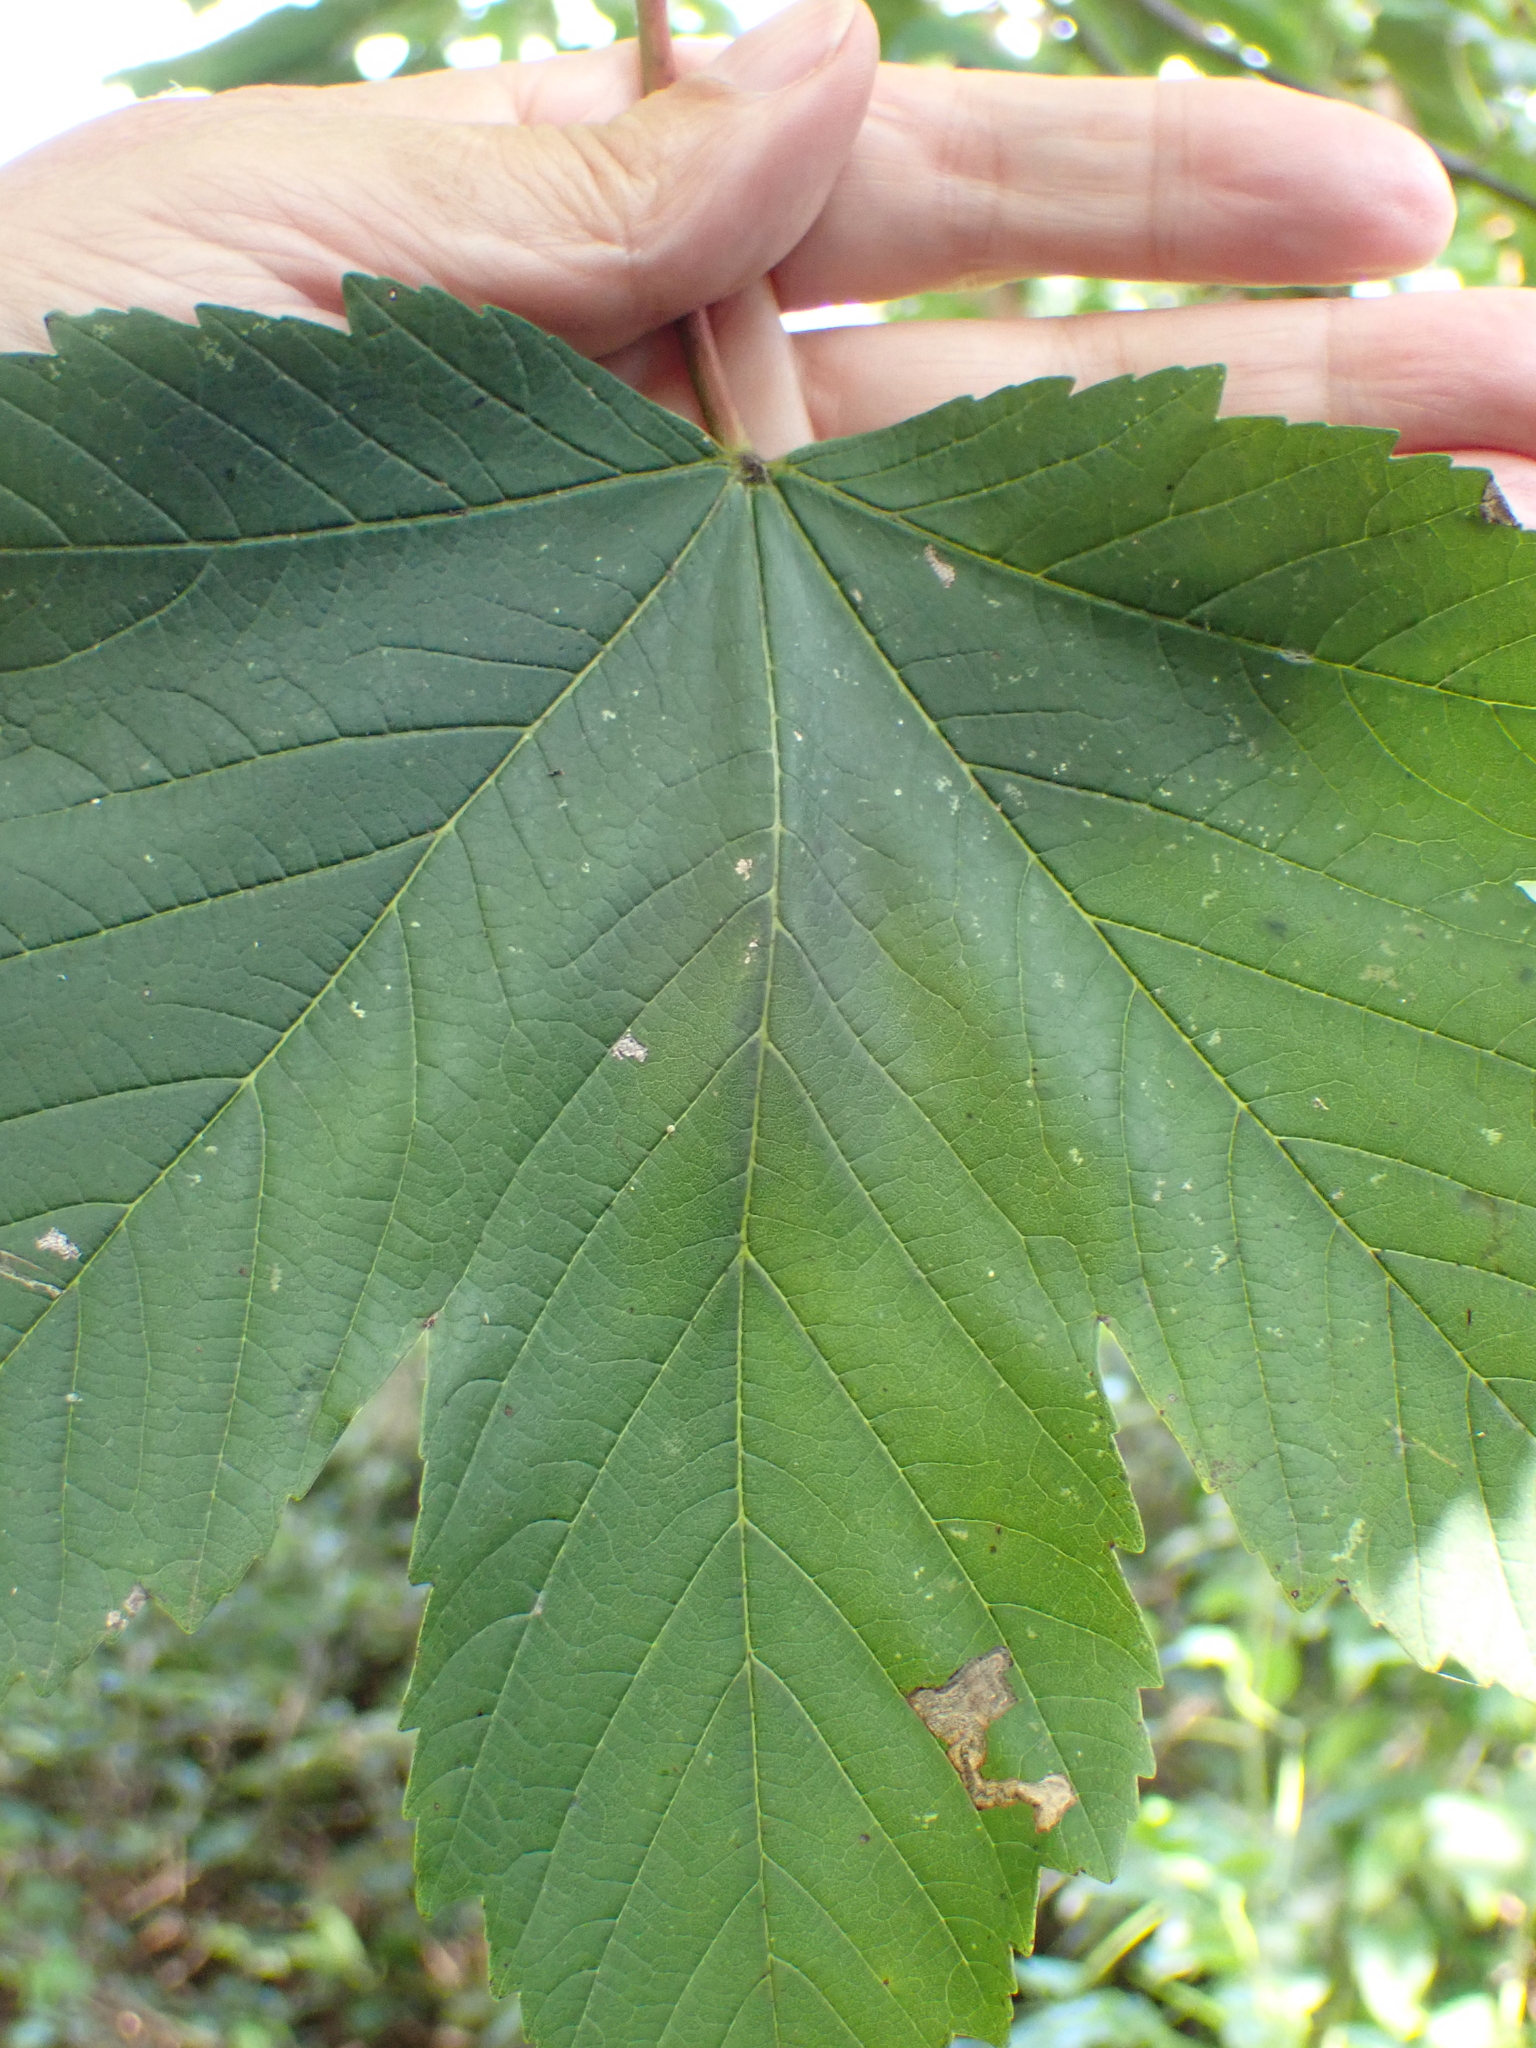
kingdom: Plantae
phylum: Tracheophyta
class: Magnoliopsida
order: Sapindales
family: Sapindaceae
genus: Acer
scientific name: Acer pseudoplatanus
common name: Sycamore
